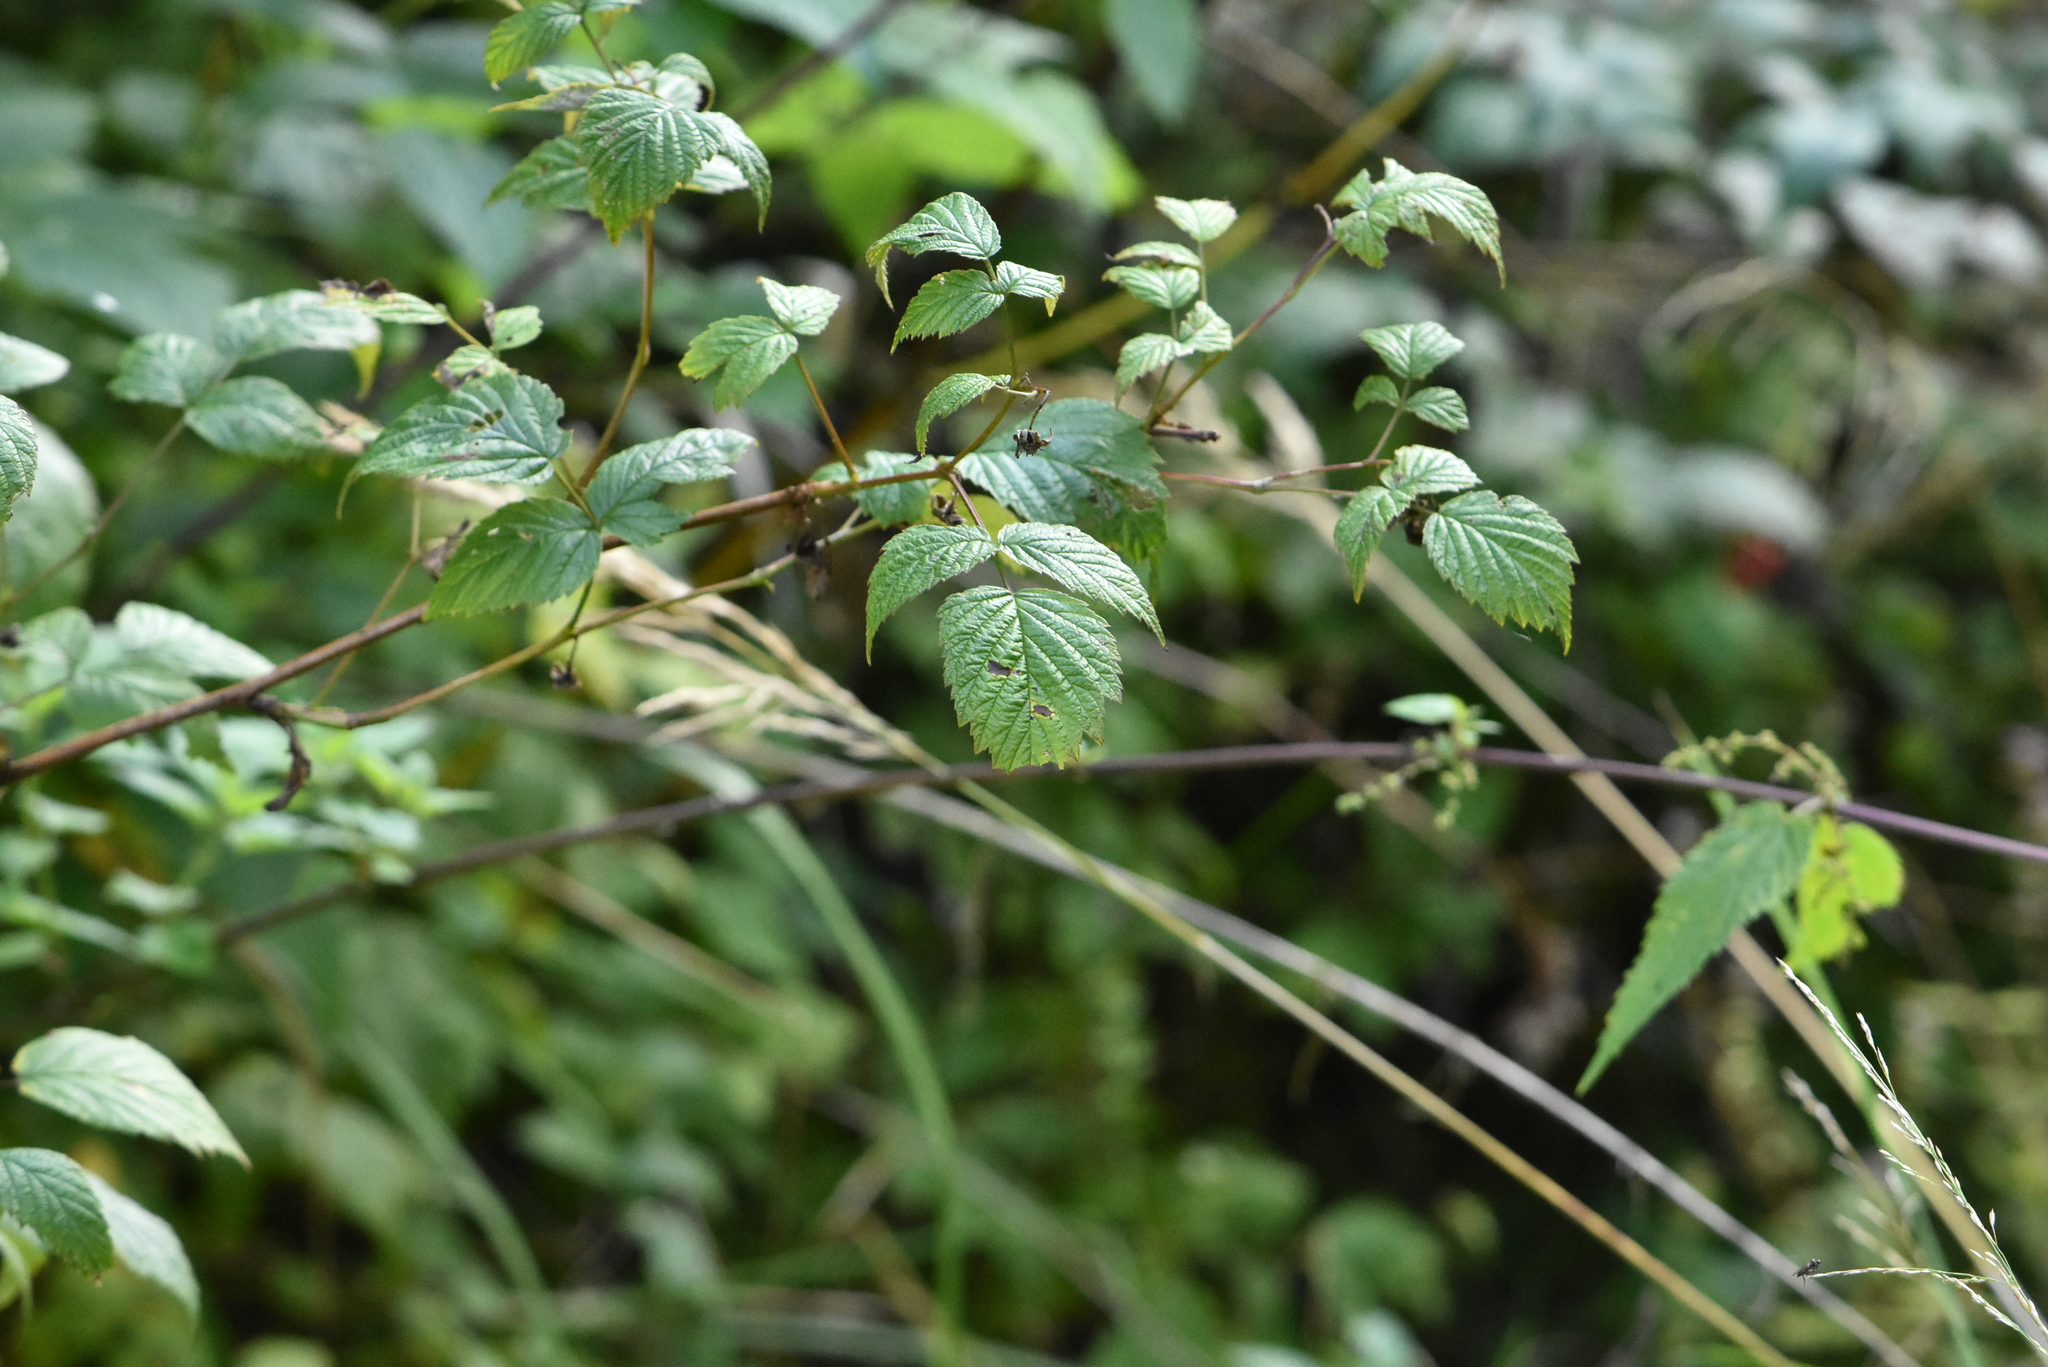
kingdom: Plantae
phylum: Tracheophyta
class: Magnoliopsida
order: Rosales
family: Rosaceae
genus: Rubus
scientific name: Rubus idaeus
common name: Raspberry
